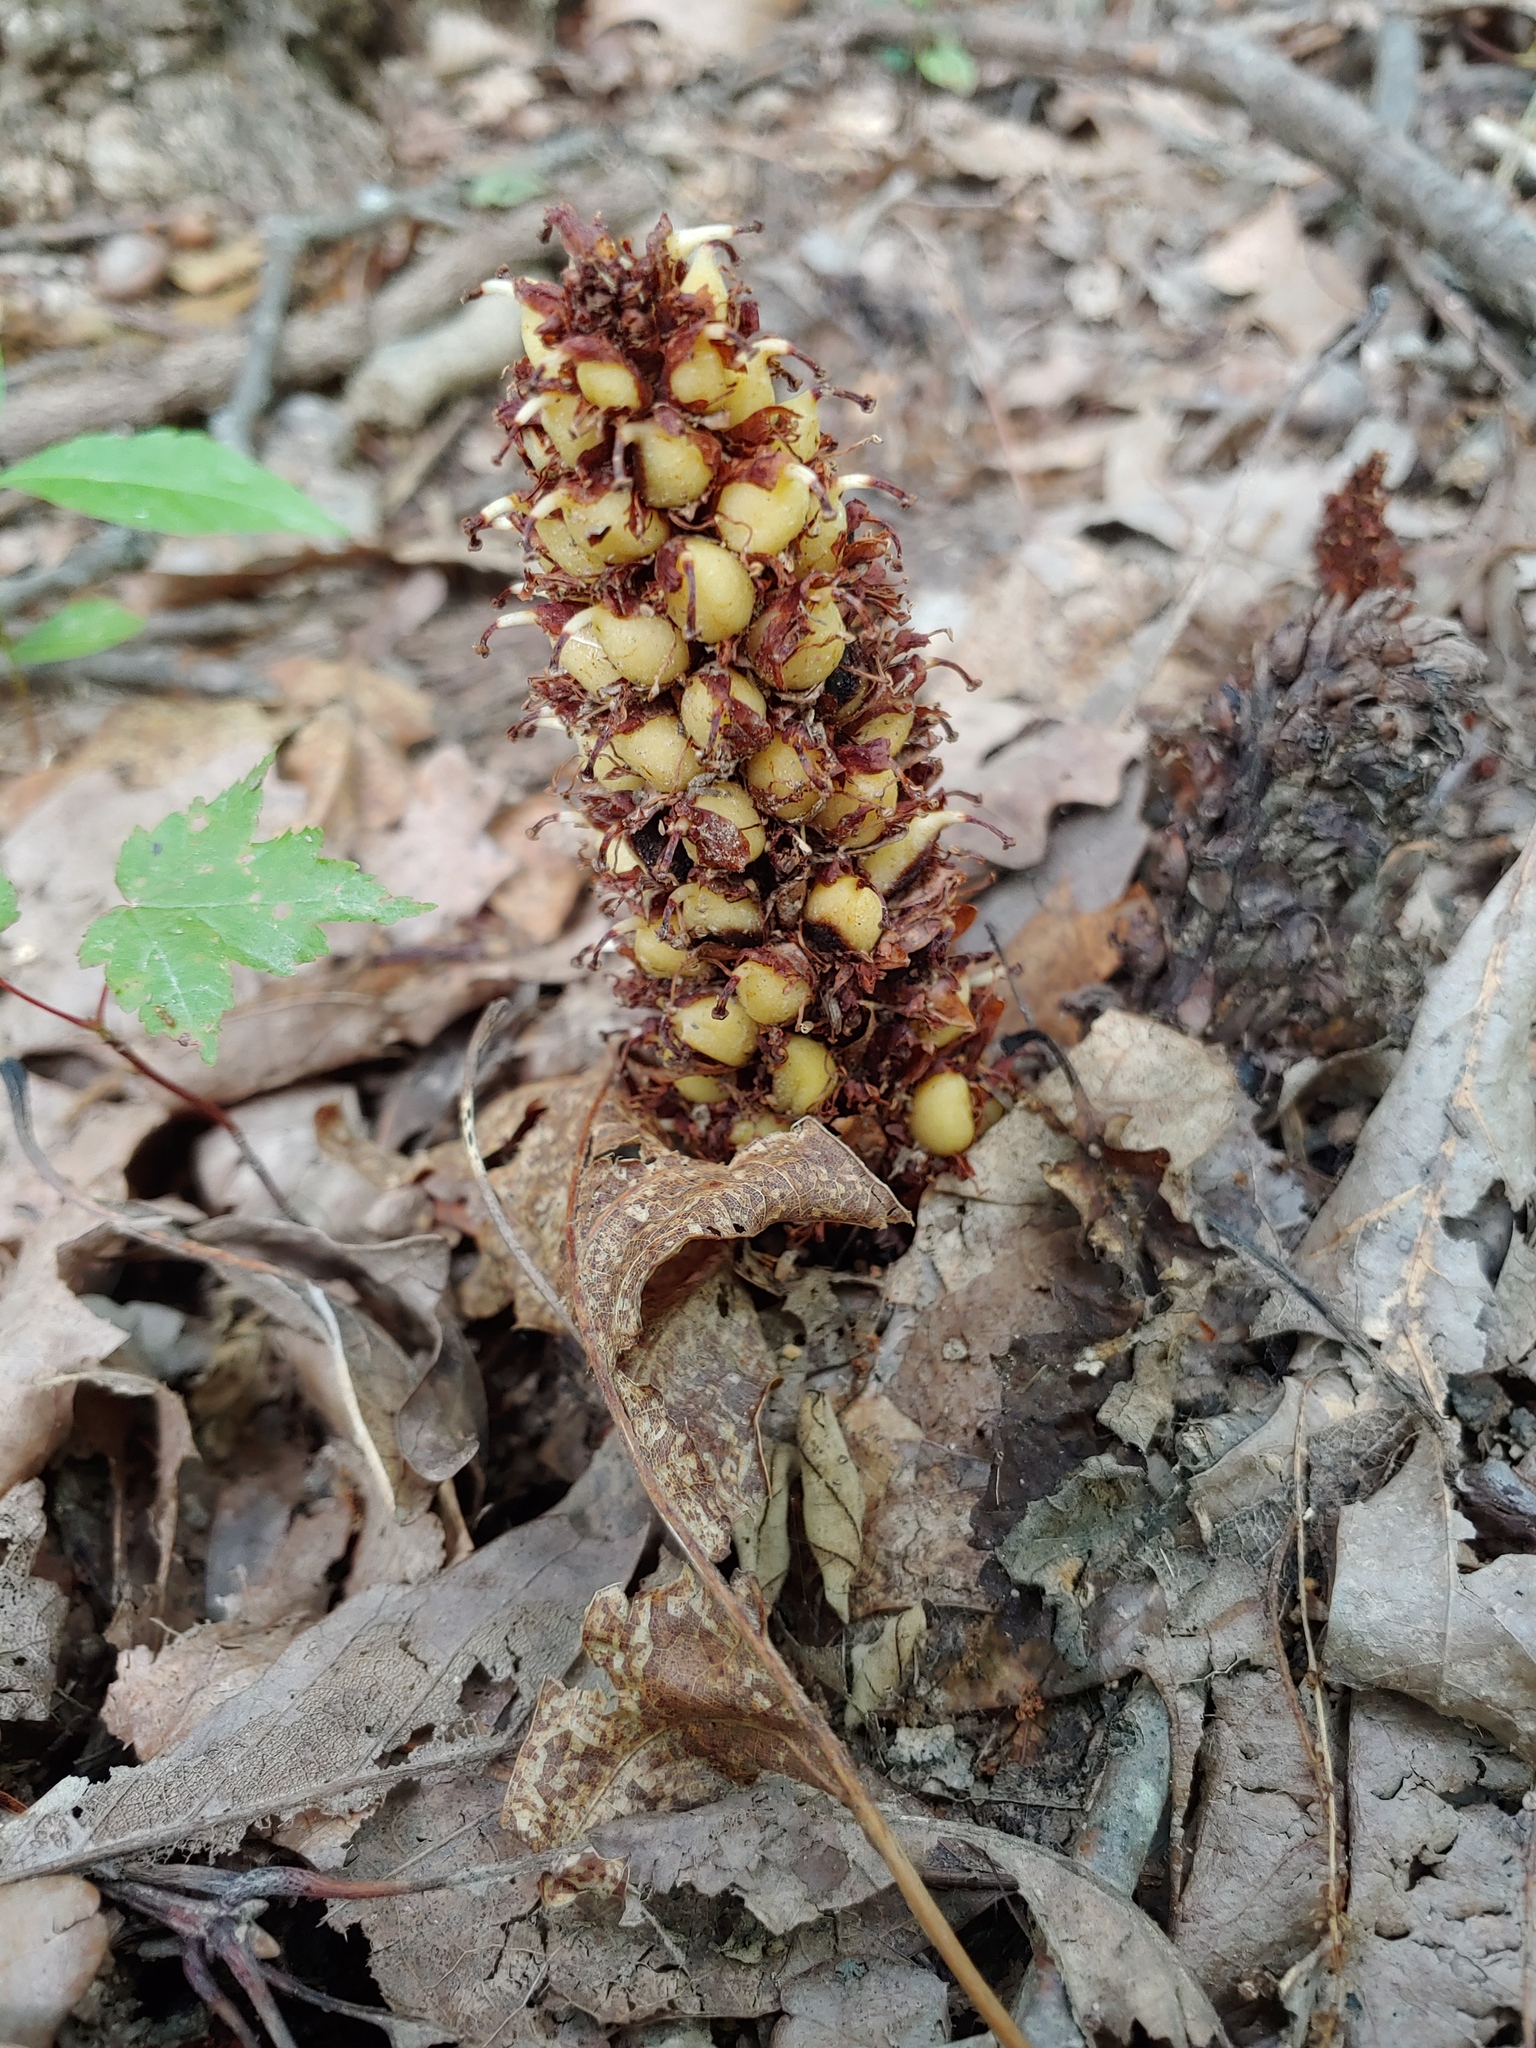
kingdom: Plantae
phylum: Tracheophyta
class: Magnoliopsida
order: Lamiales
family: Orobanchaceae
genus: Conopholis
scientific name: Conopholis americana
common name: American cancer-root
